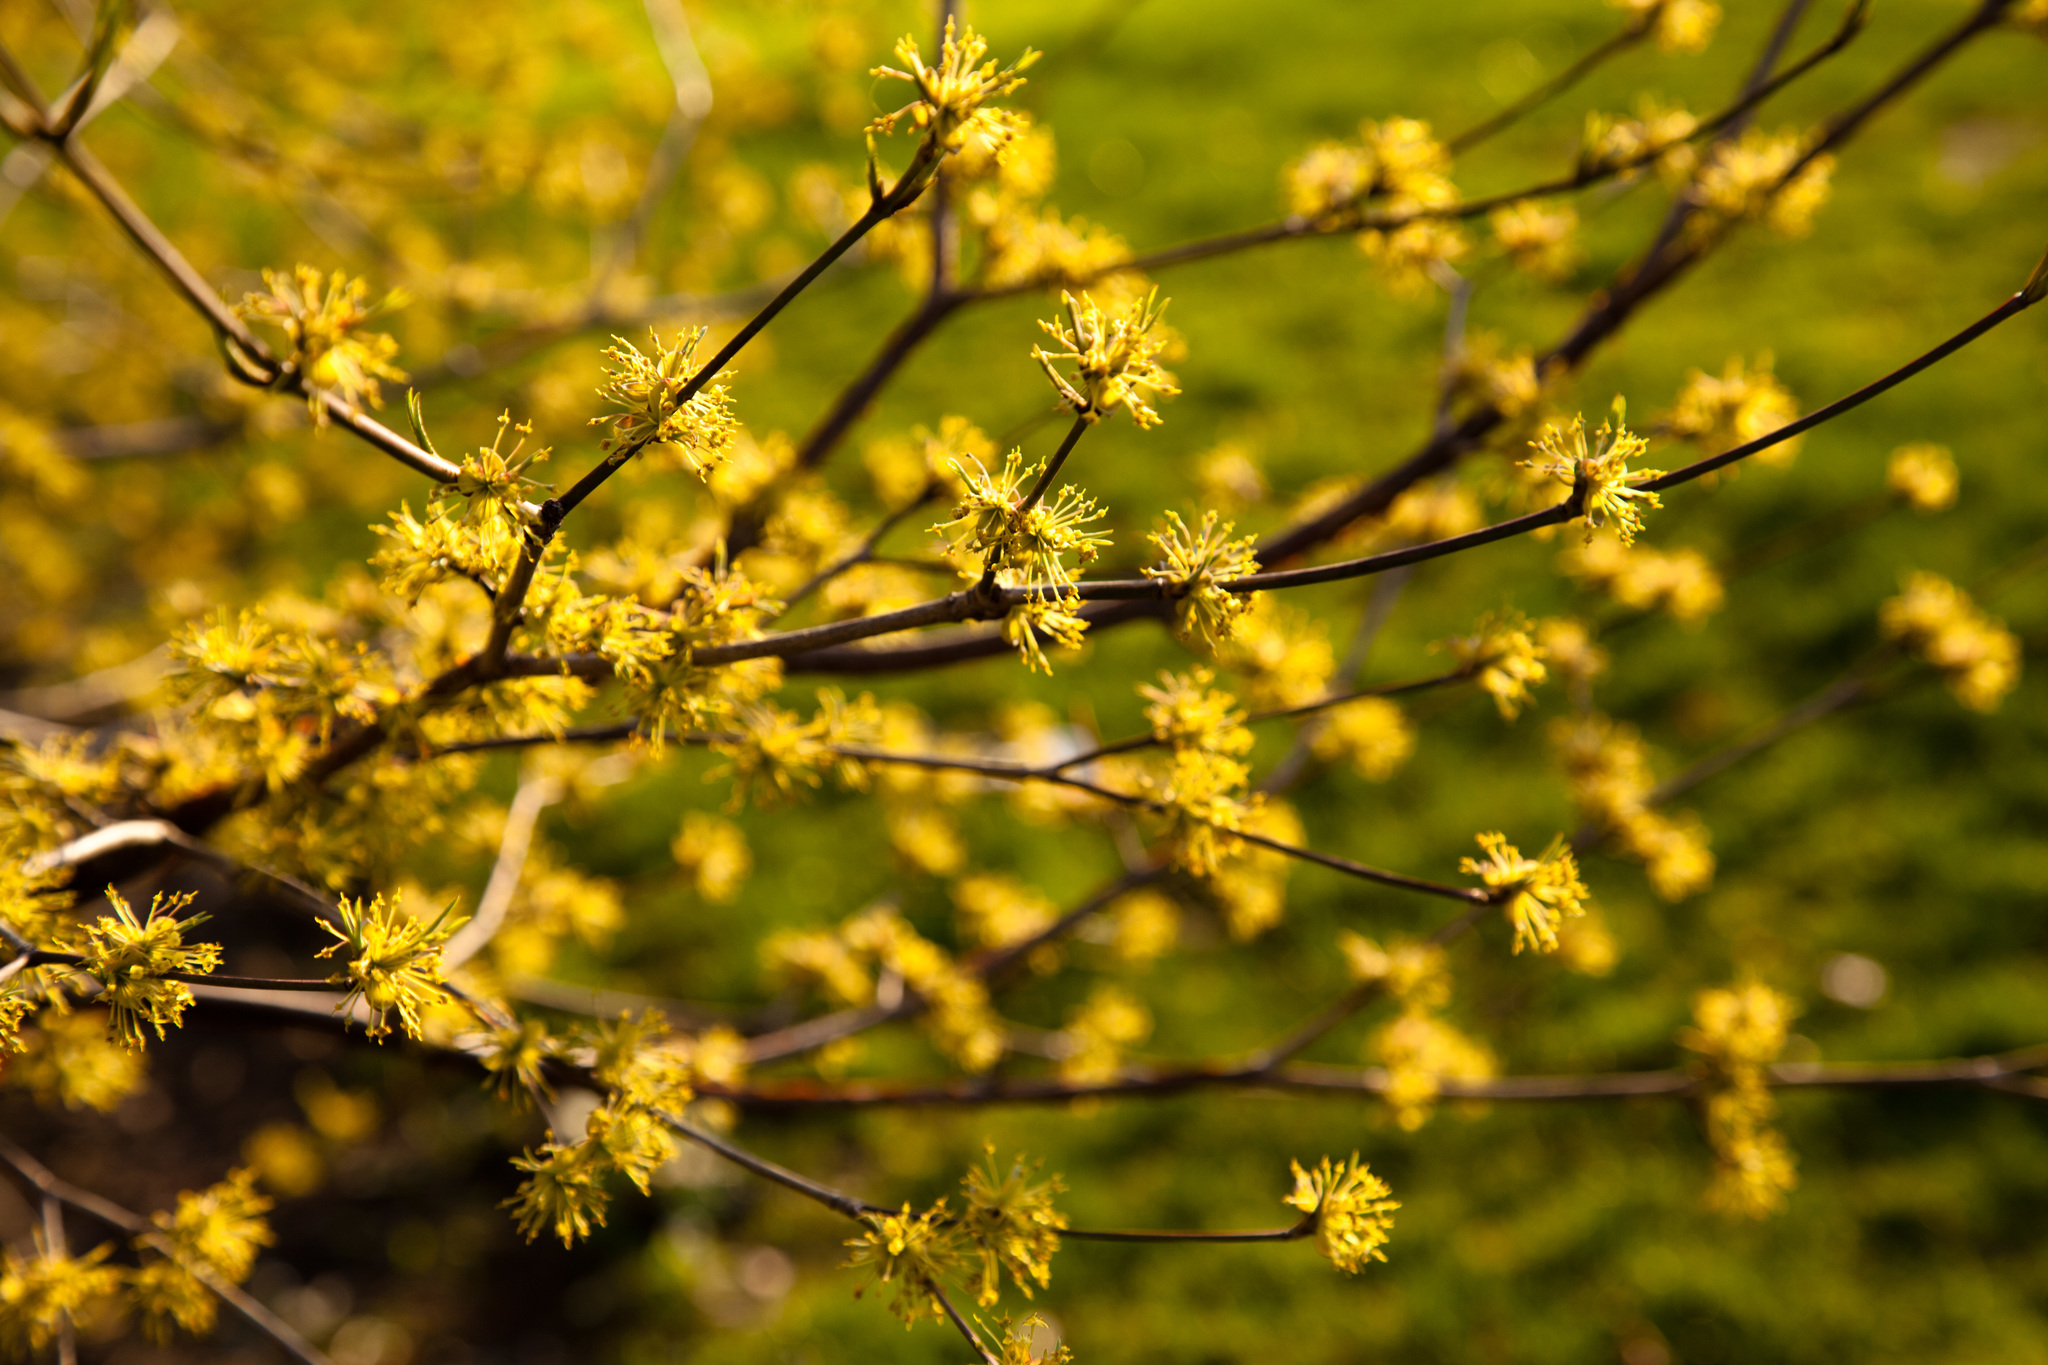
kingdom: Plantae
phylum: Tracheophyta
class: Magnoliopsida
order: Cornales
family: Cornaceae
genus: Cornus
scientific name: Cornus mas
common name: Cornelian-cherry
